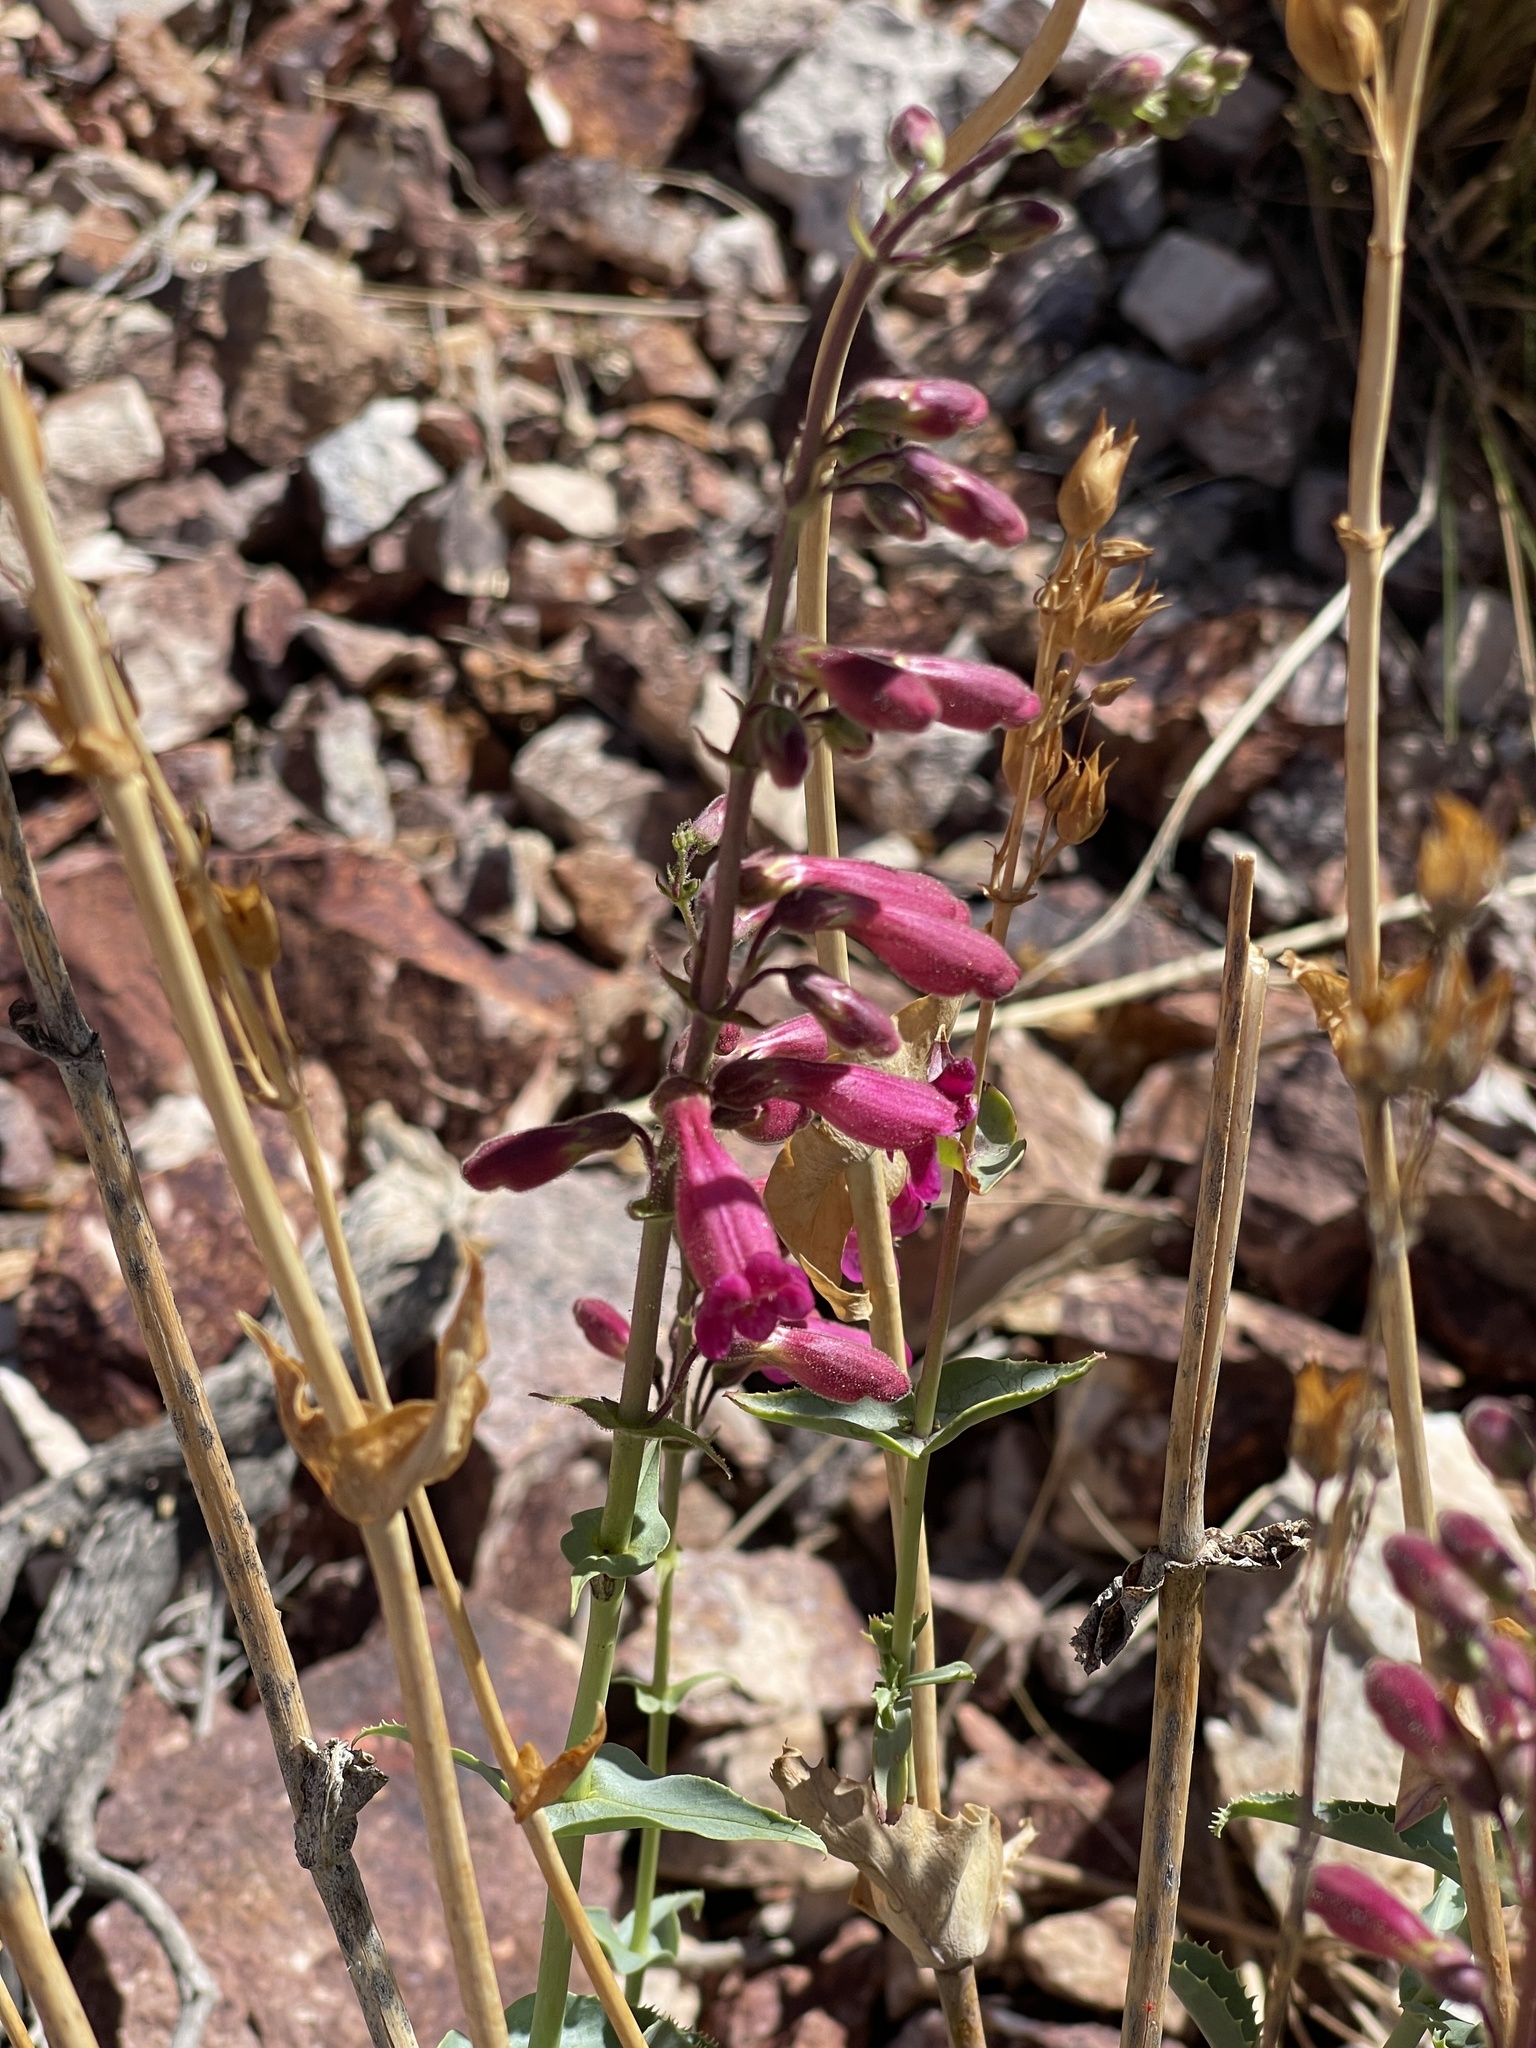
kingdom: Plantae
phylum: Tracheophyta
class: Magnoliopsida
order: Lamiales
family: Plantaginaceae
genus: Penstemon
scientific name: Penstemon bicolor
